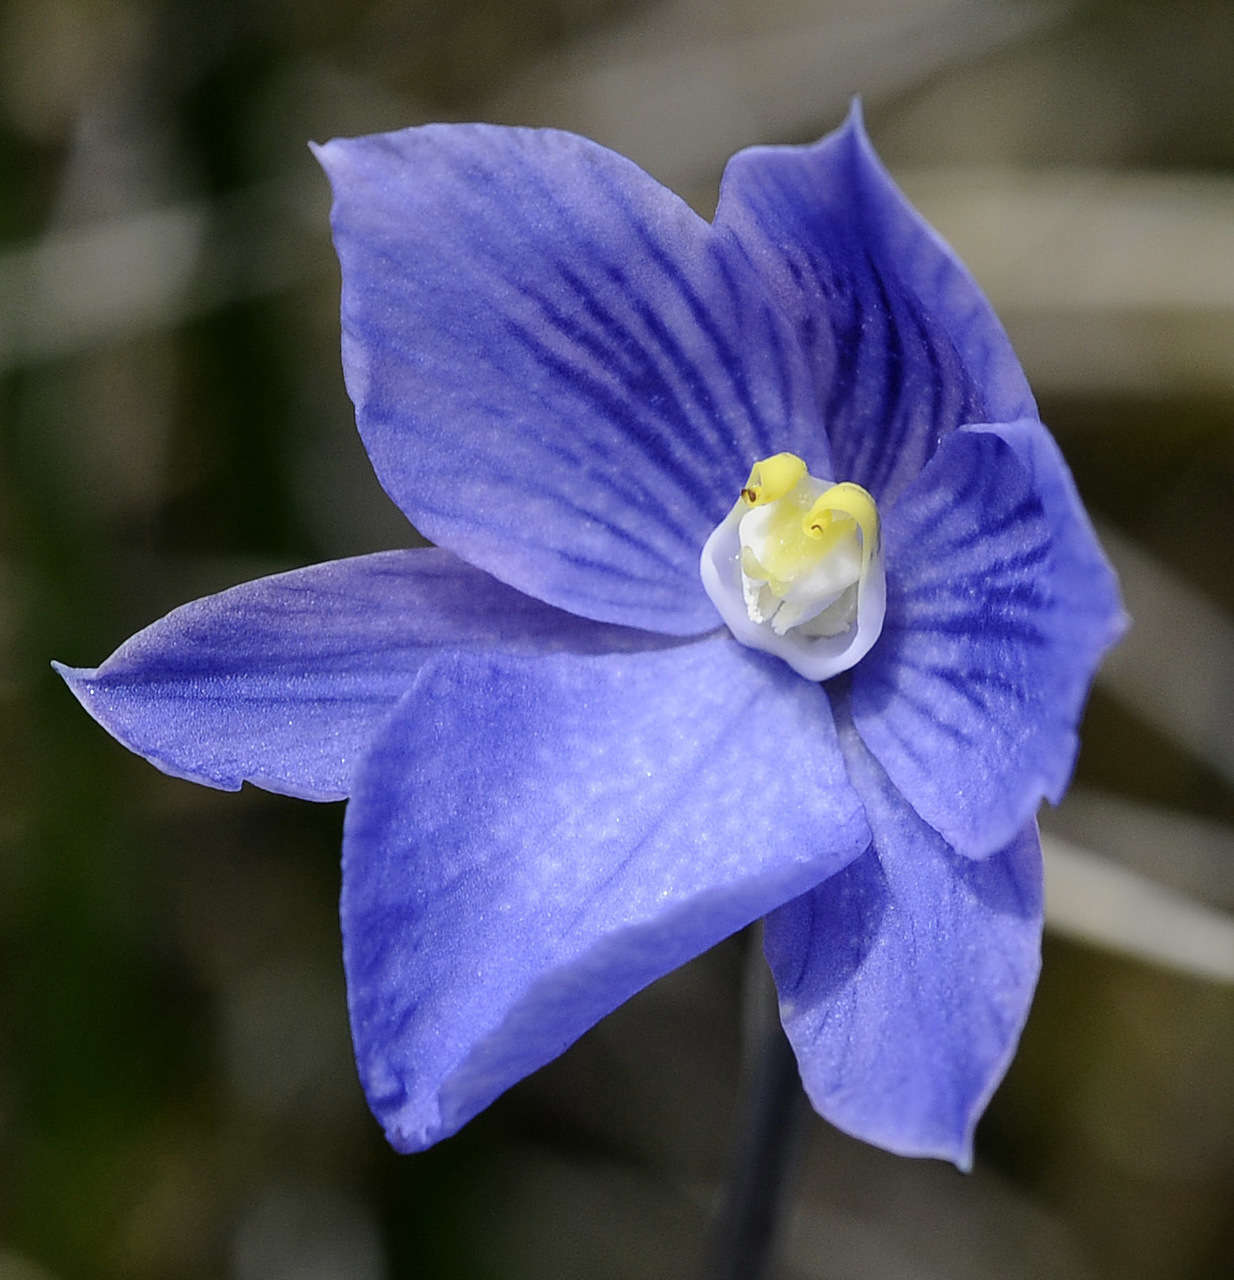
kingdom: Plantae
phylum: Tracheophyta
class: Liliopsida
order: Asparagales
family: Orchidaceae
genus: Thelymitra
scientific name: Thelymitra cyanea
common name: Blue sun-orchid
